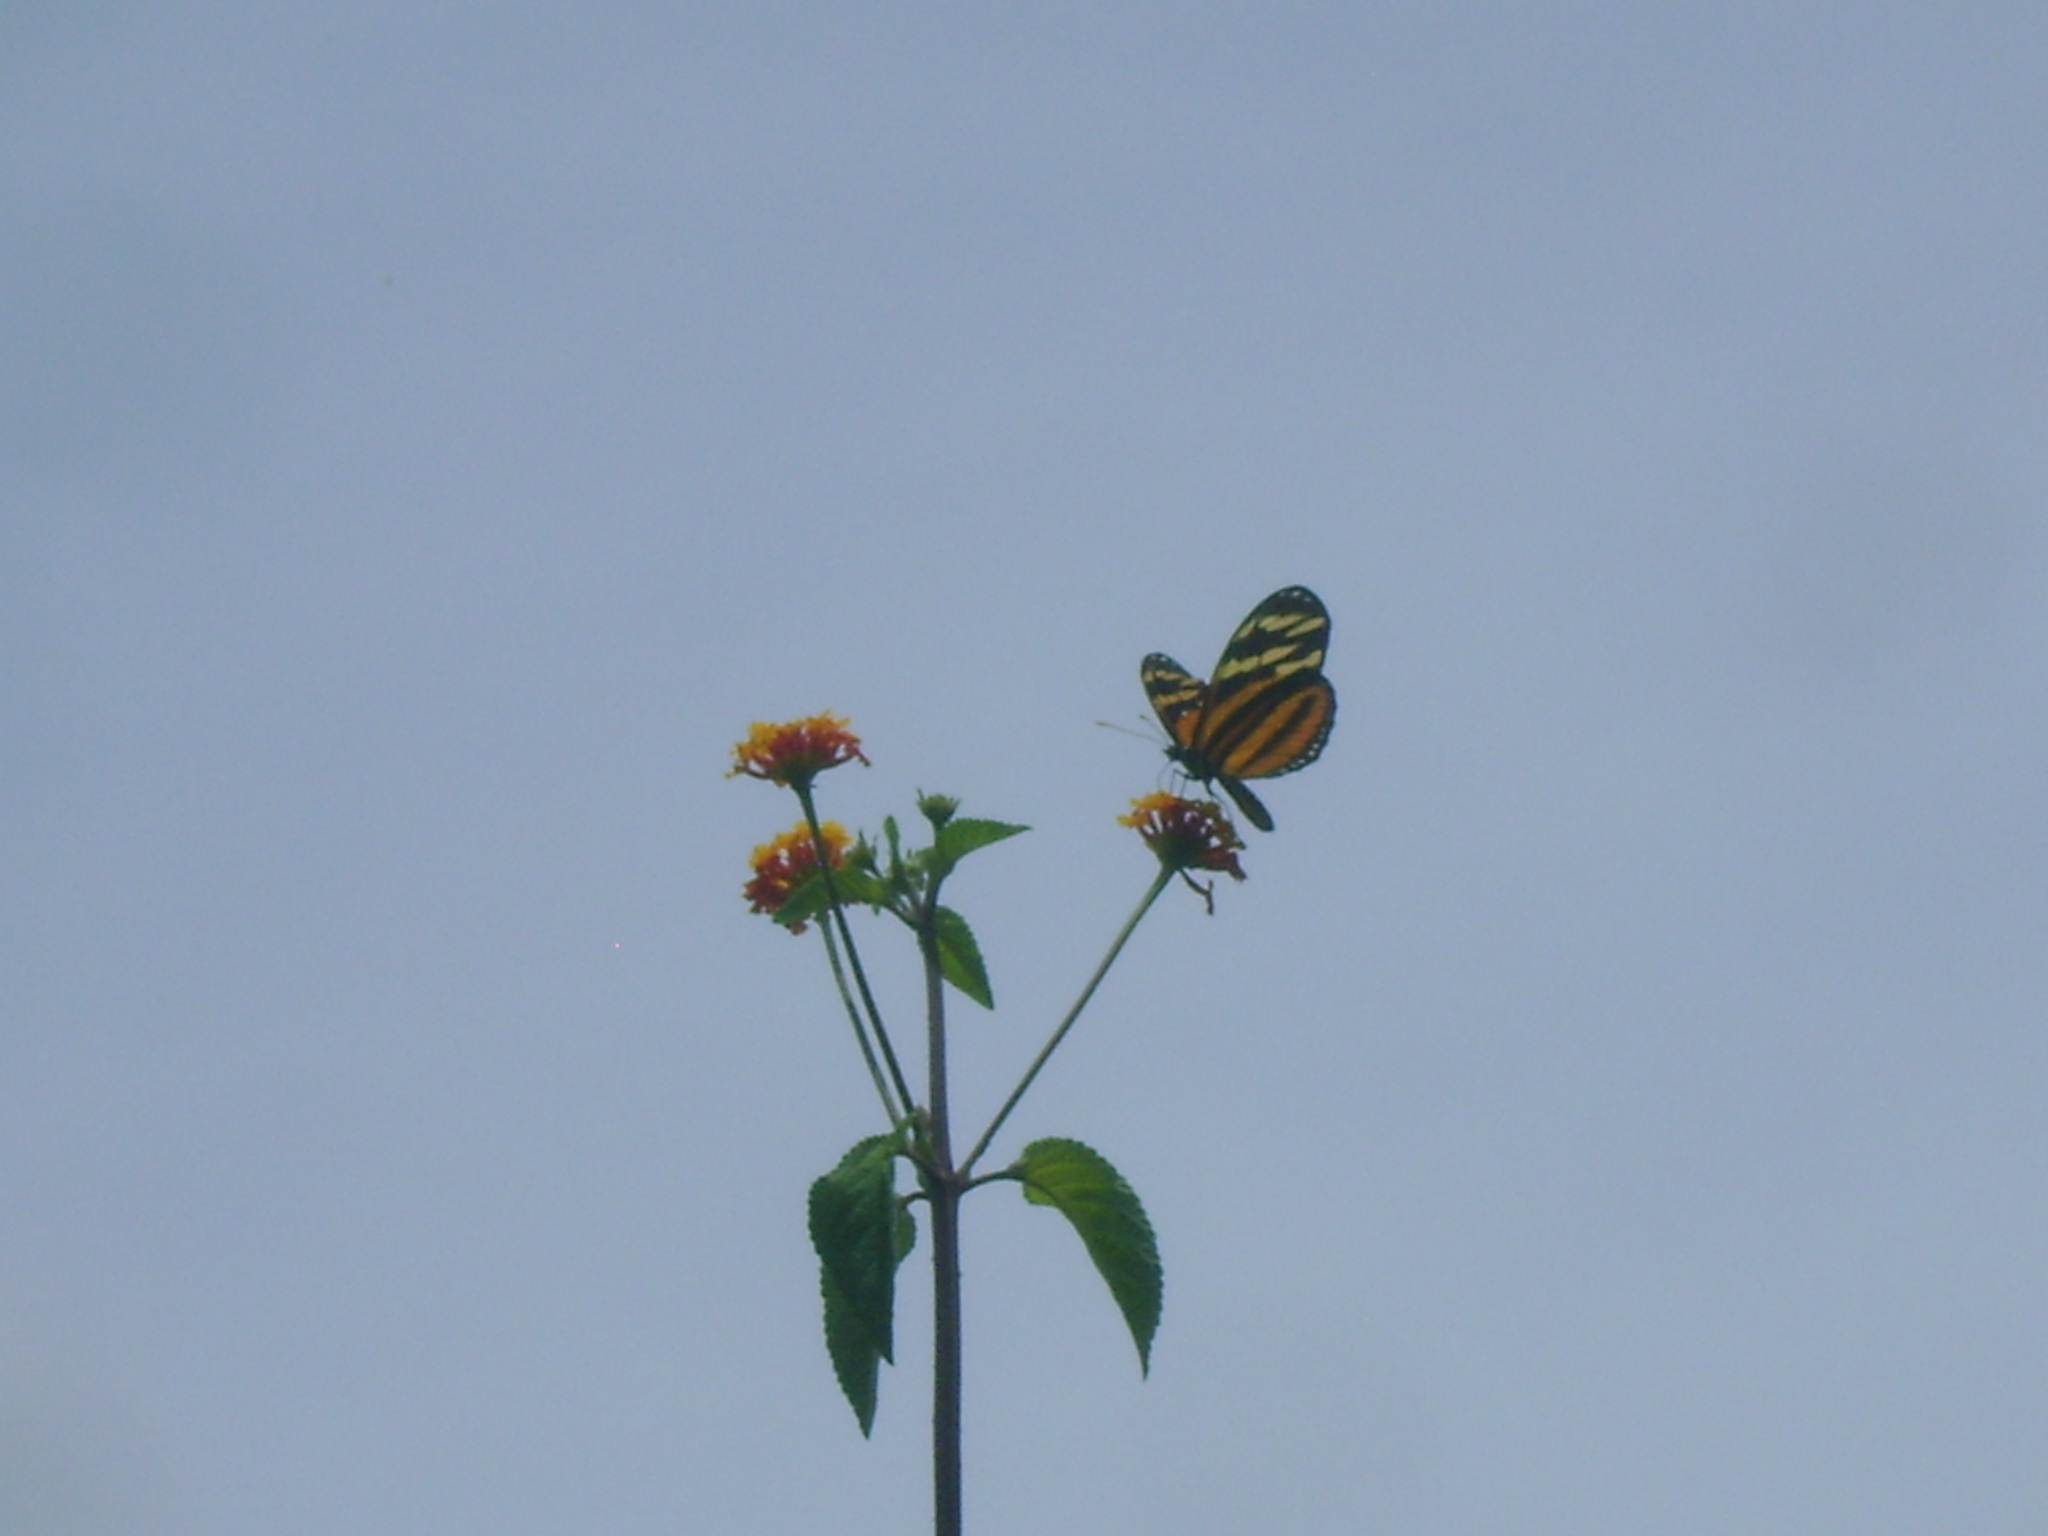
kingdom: Animalia
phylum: Arthropoda
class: Insecta
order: Lepidoptera
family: Nymphalidae
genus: Lycorea
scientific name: Lycorea eva
